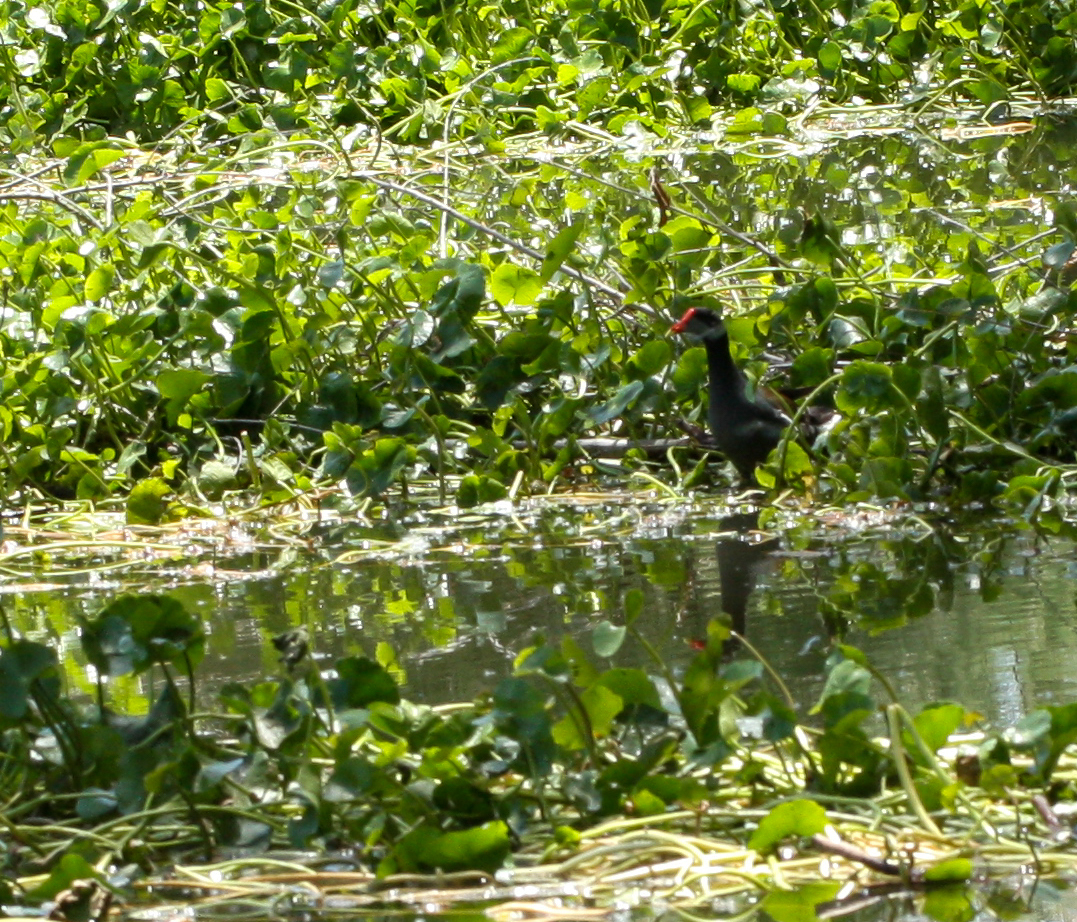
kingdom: Animalia
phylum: Chordata
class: Aves
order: Gruiformes
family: Rallidae
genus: Gallinula
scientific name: Gallinula chloropus
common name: Common moorhen
